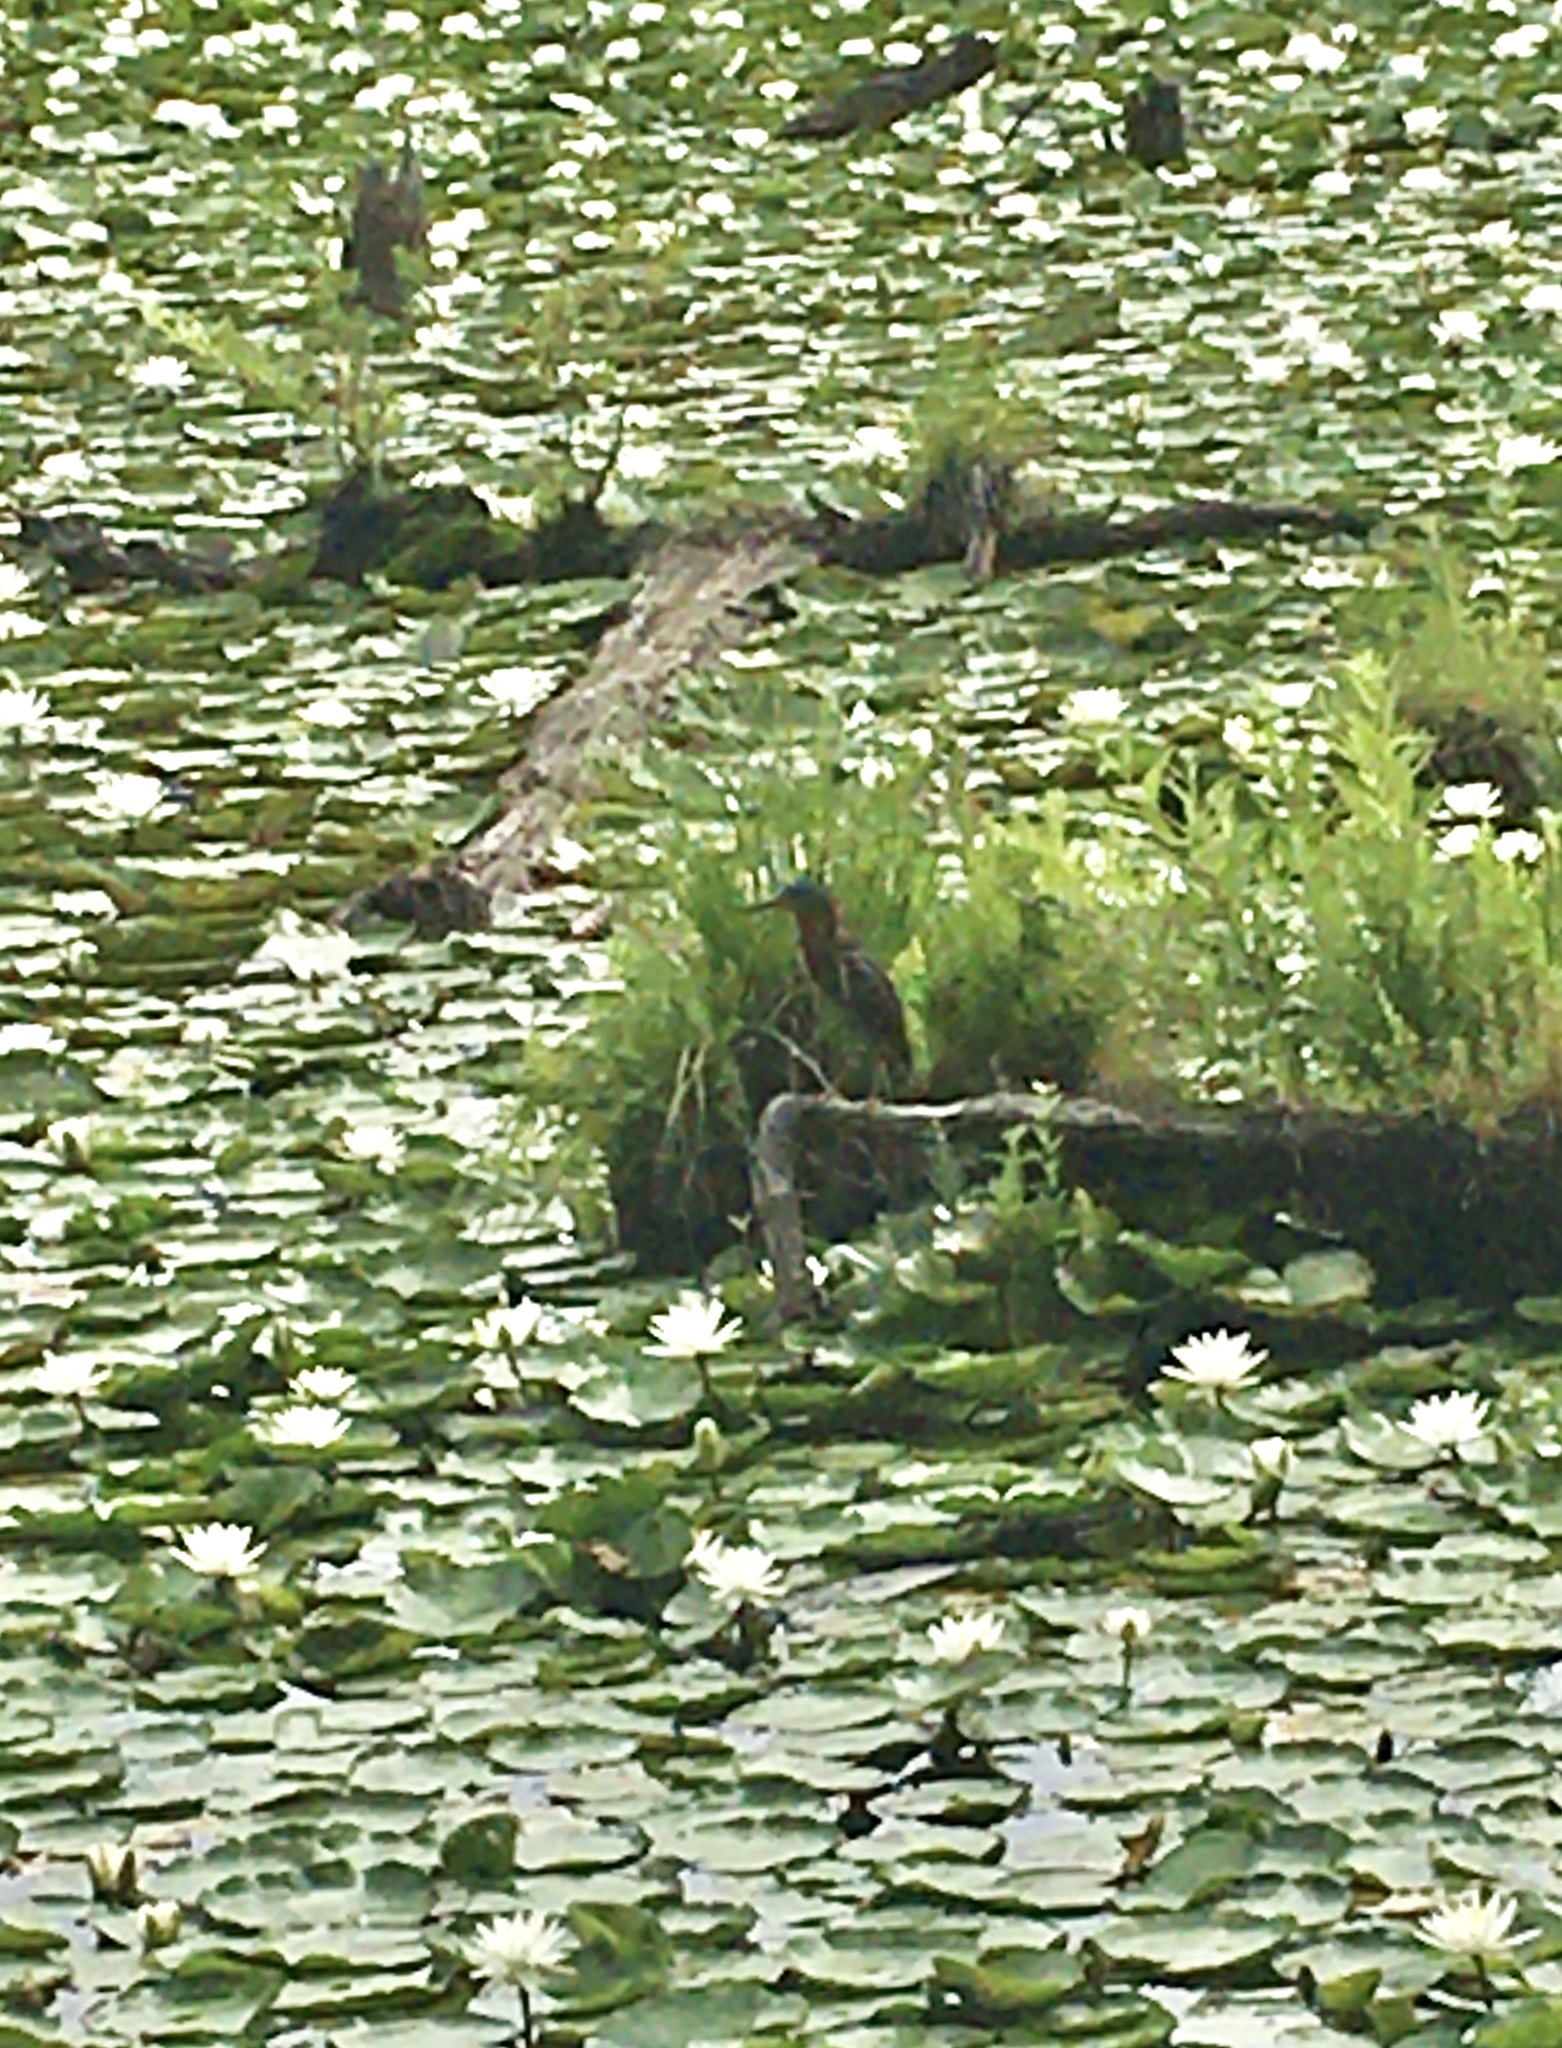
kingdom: Animalia
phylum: Chordata
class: Aves
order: Pelecaniformes
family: Ardeidae
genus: Butorides
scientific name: Butorides virescens
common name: Green heron
